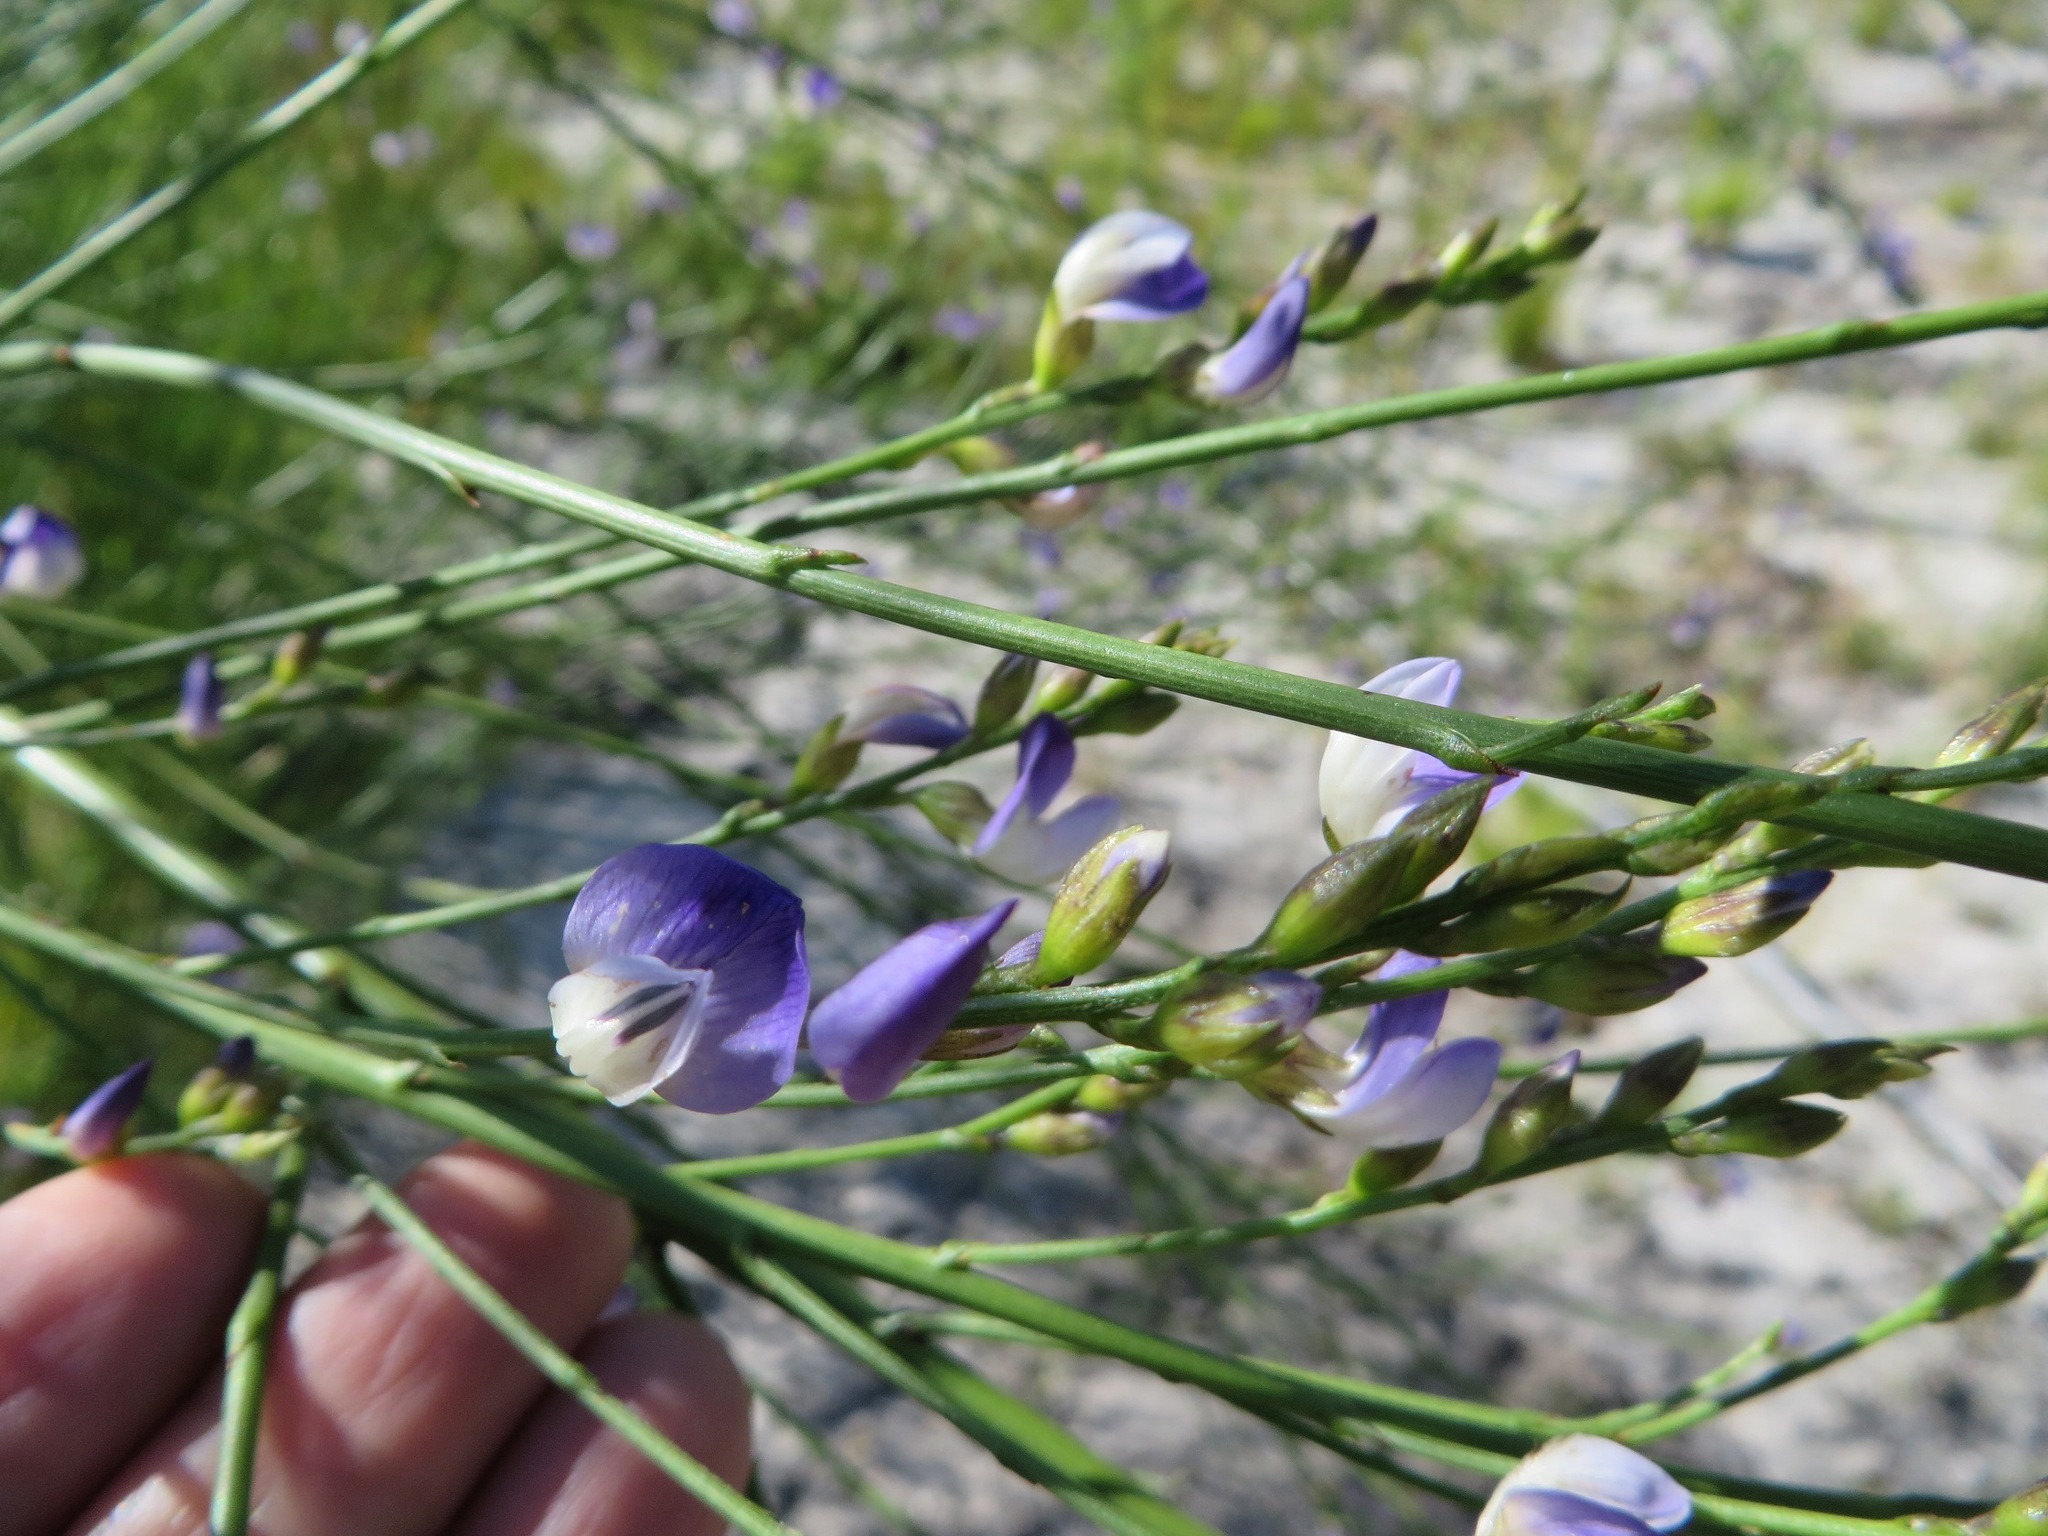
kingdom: Plantae
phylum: Tracheophyta
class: Magnoliopsida
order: Fabales
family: Fabaceae
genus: Psoralea
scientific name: Psoralea usitata
